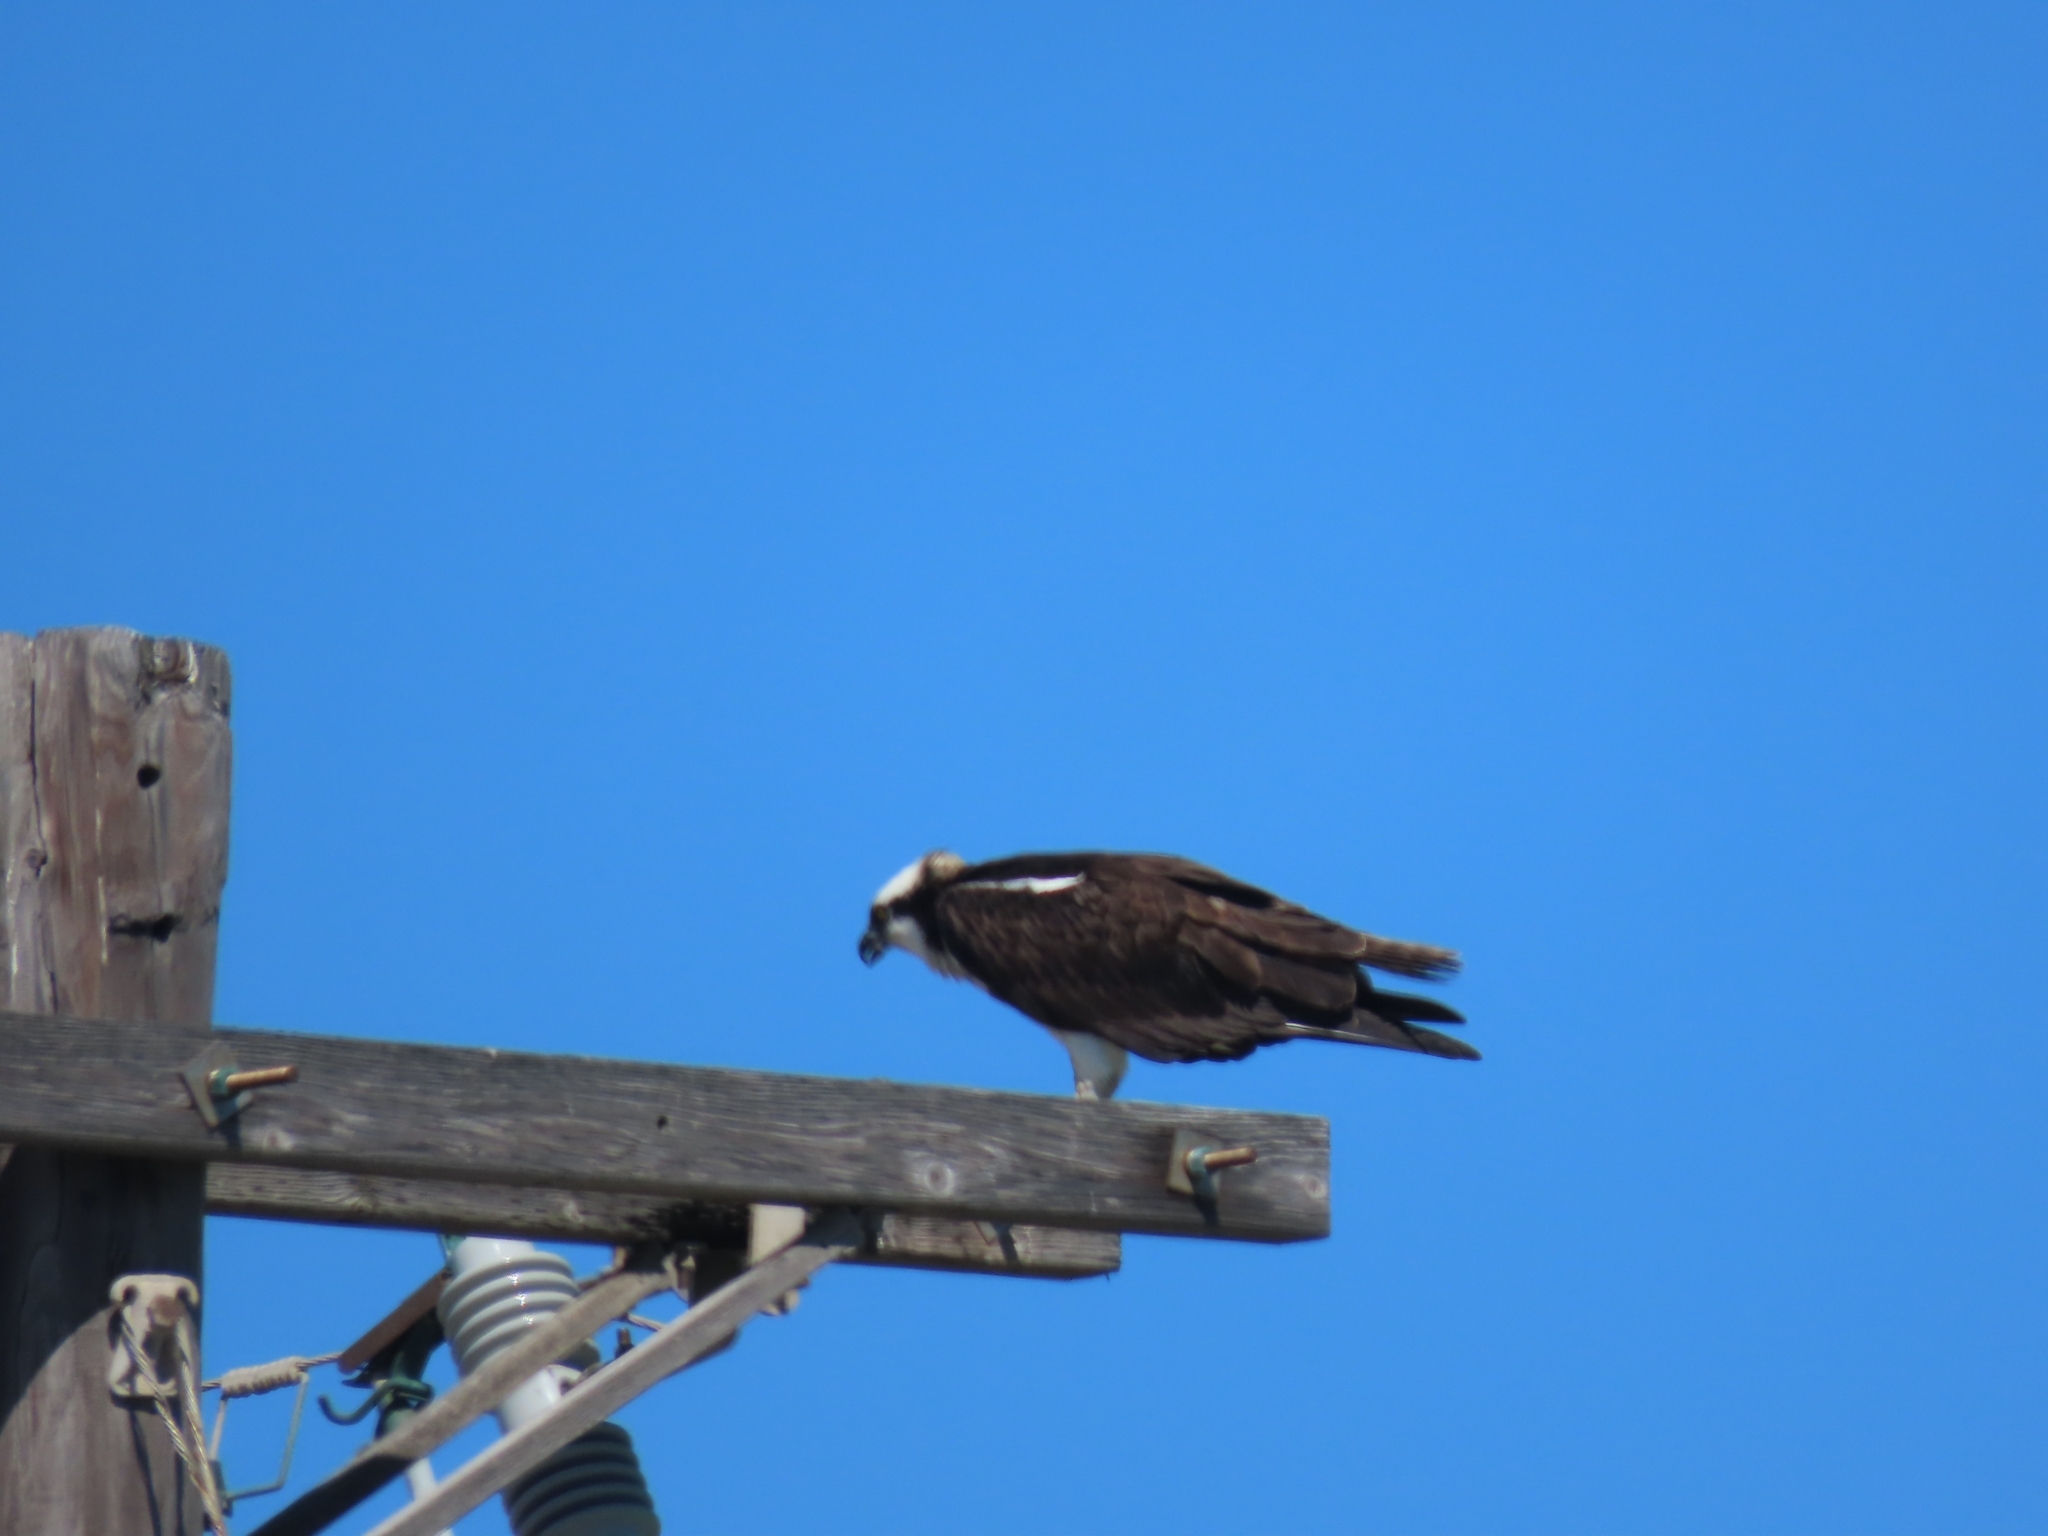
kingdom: Animalia
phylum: Chordata
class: Aves
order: Accipitriformes
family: Pandionidae
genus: Pandion
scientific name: Pandion haliaetus
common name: Osprey
